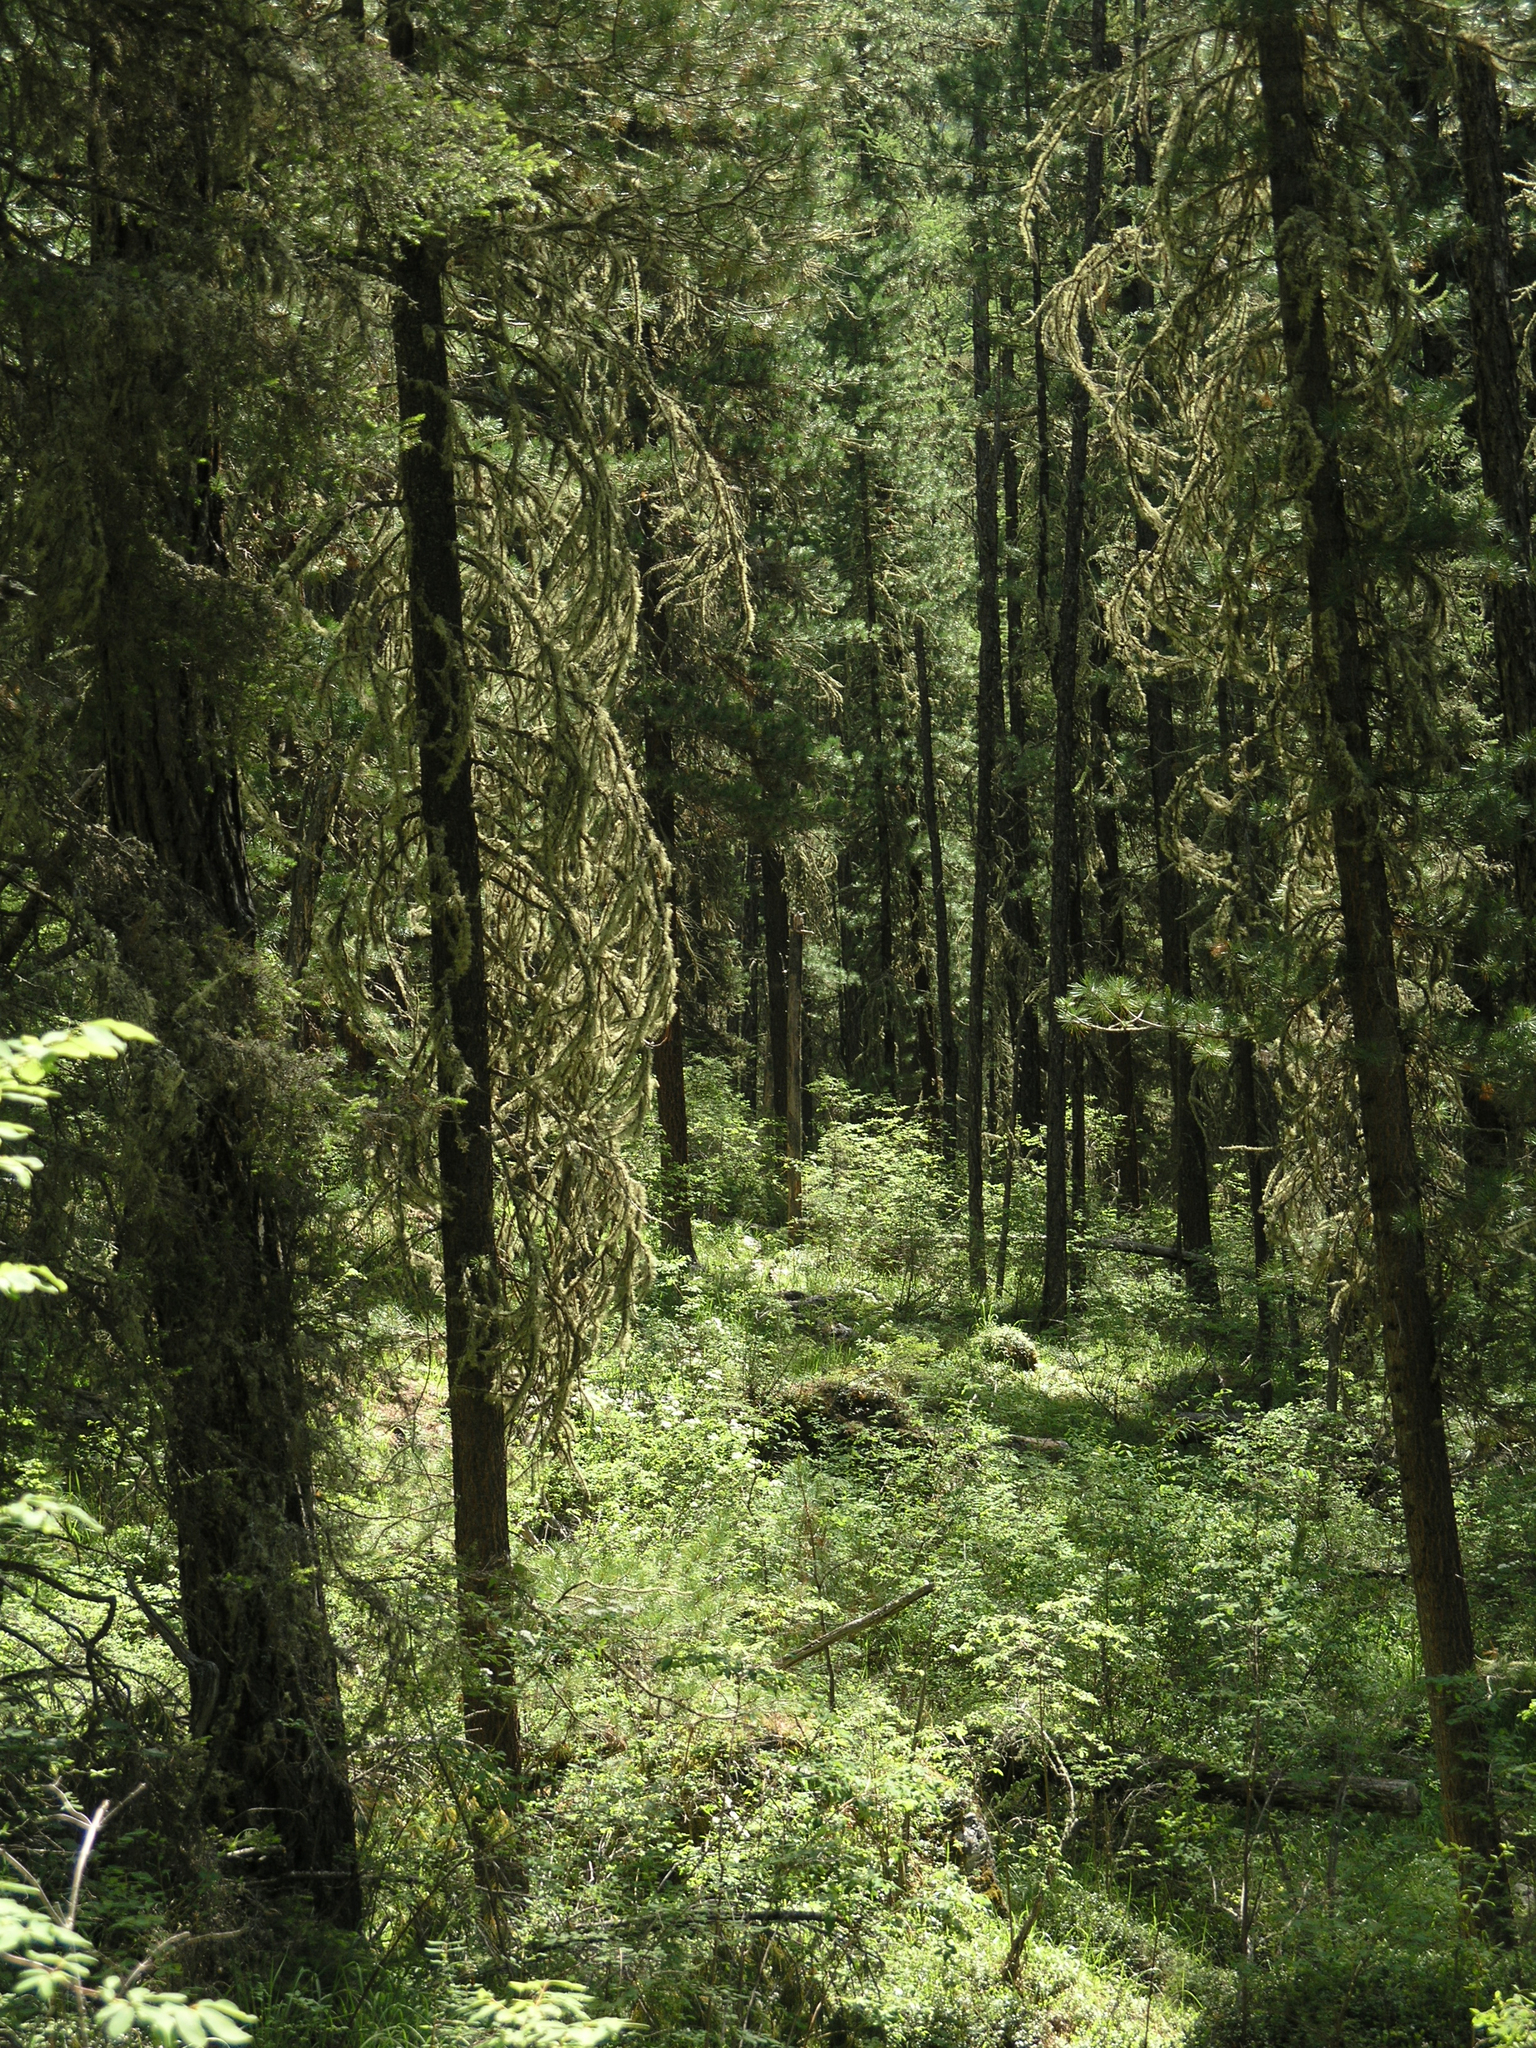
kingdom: Plantae
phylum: Tracheophyta
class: Pinopsida
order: Pinales
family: Pinaceae
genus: Pinus
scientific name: Pinus sibirica
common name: Siberian pine
